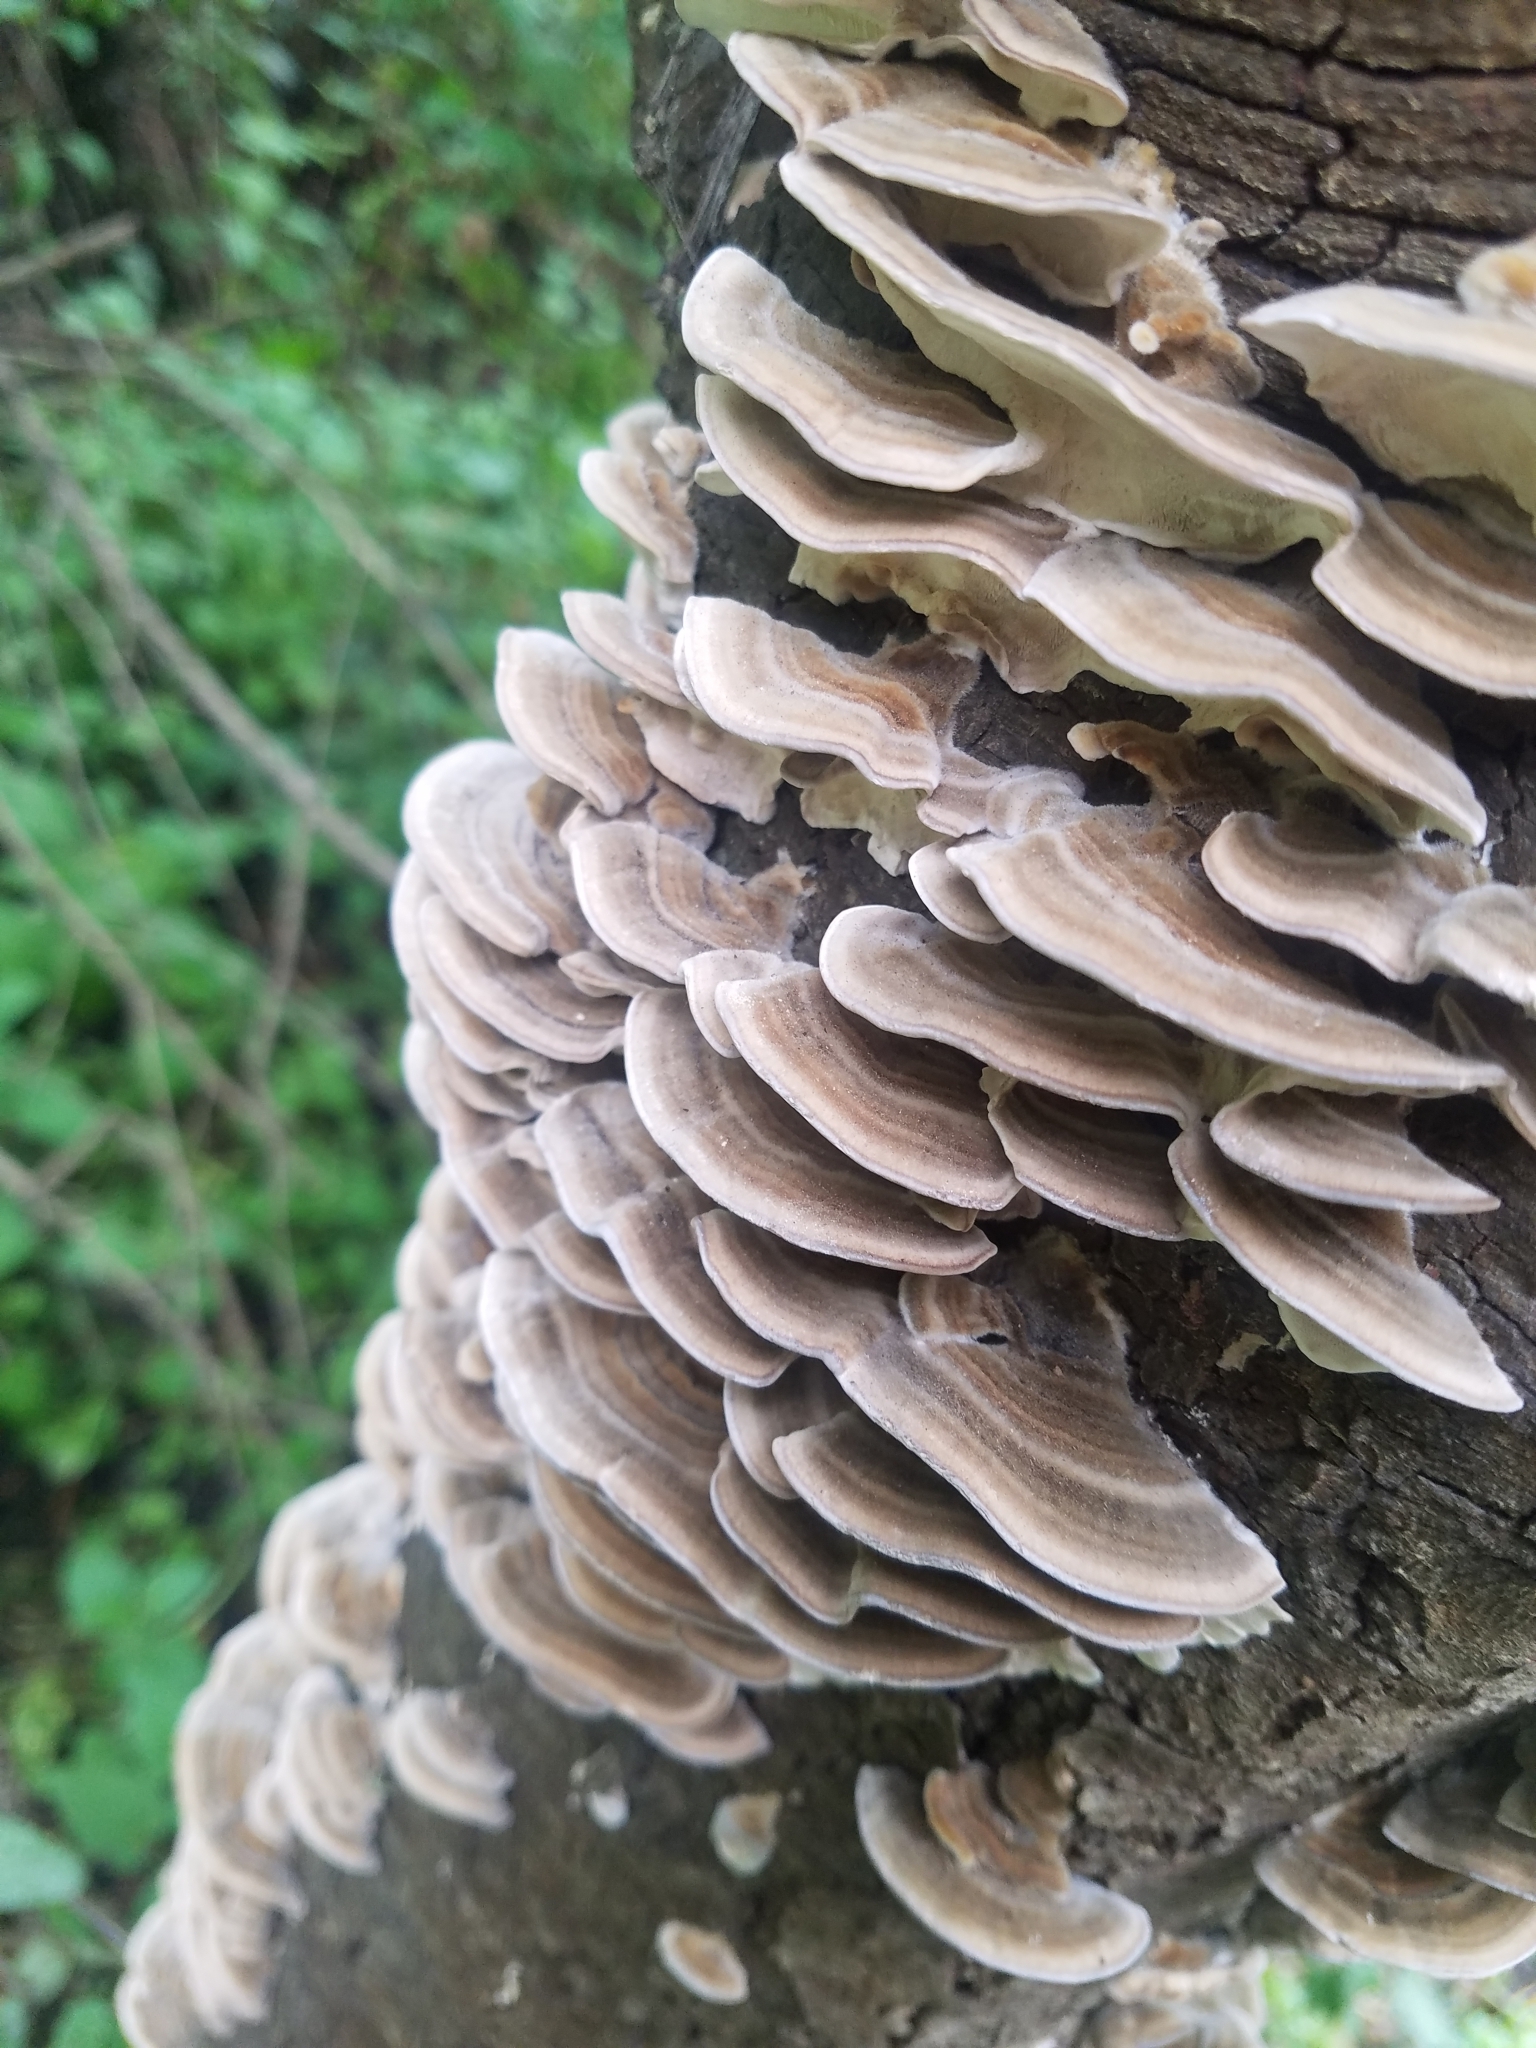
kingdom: Fungi
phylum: Basidiomycota
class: Agaricomycetes
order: Polyporales
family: Polyporaceae
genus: Trametes
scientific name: Trametes versicolor
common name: Turkeytail
